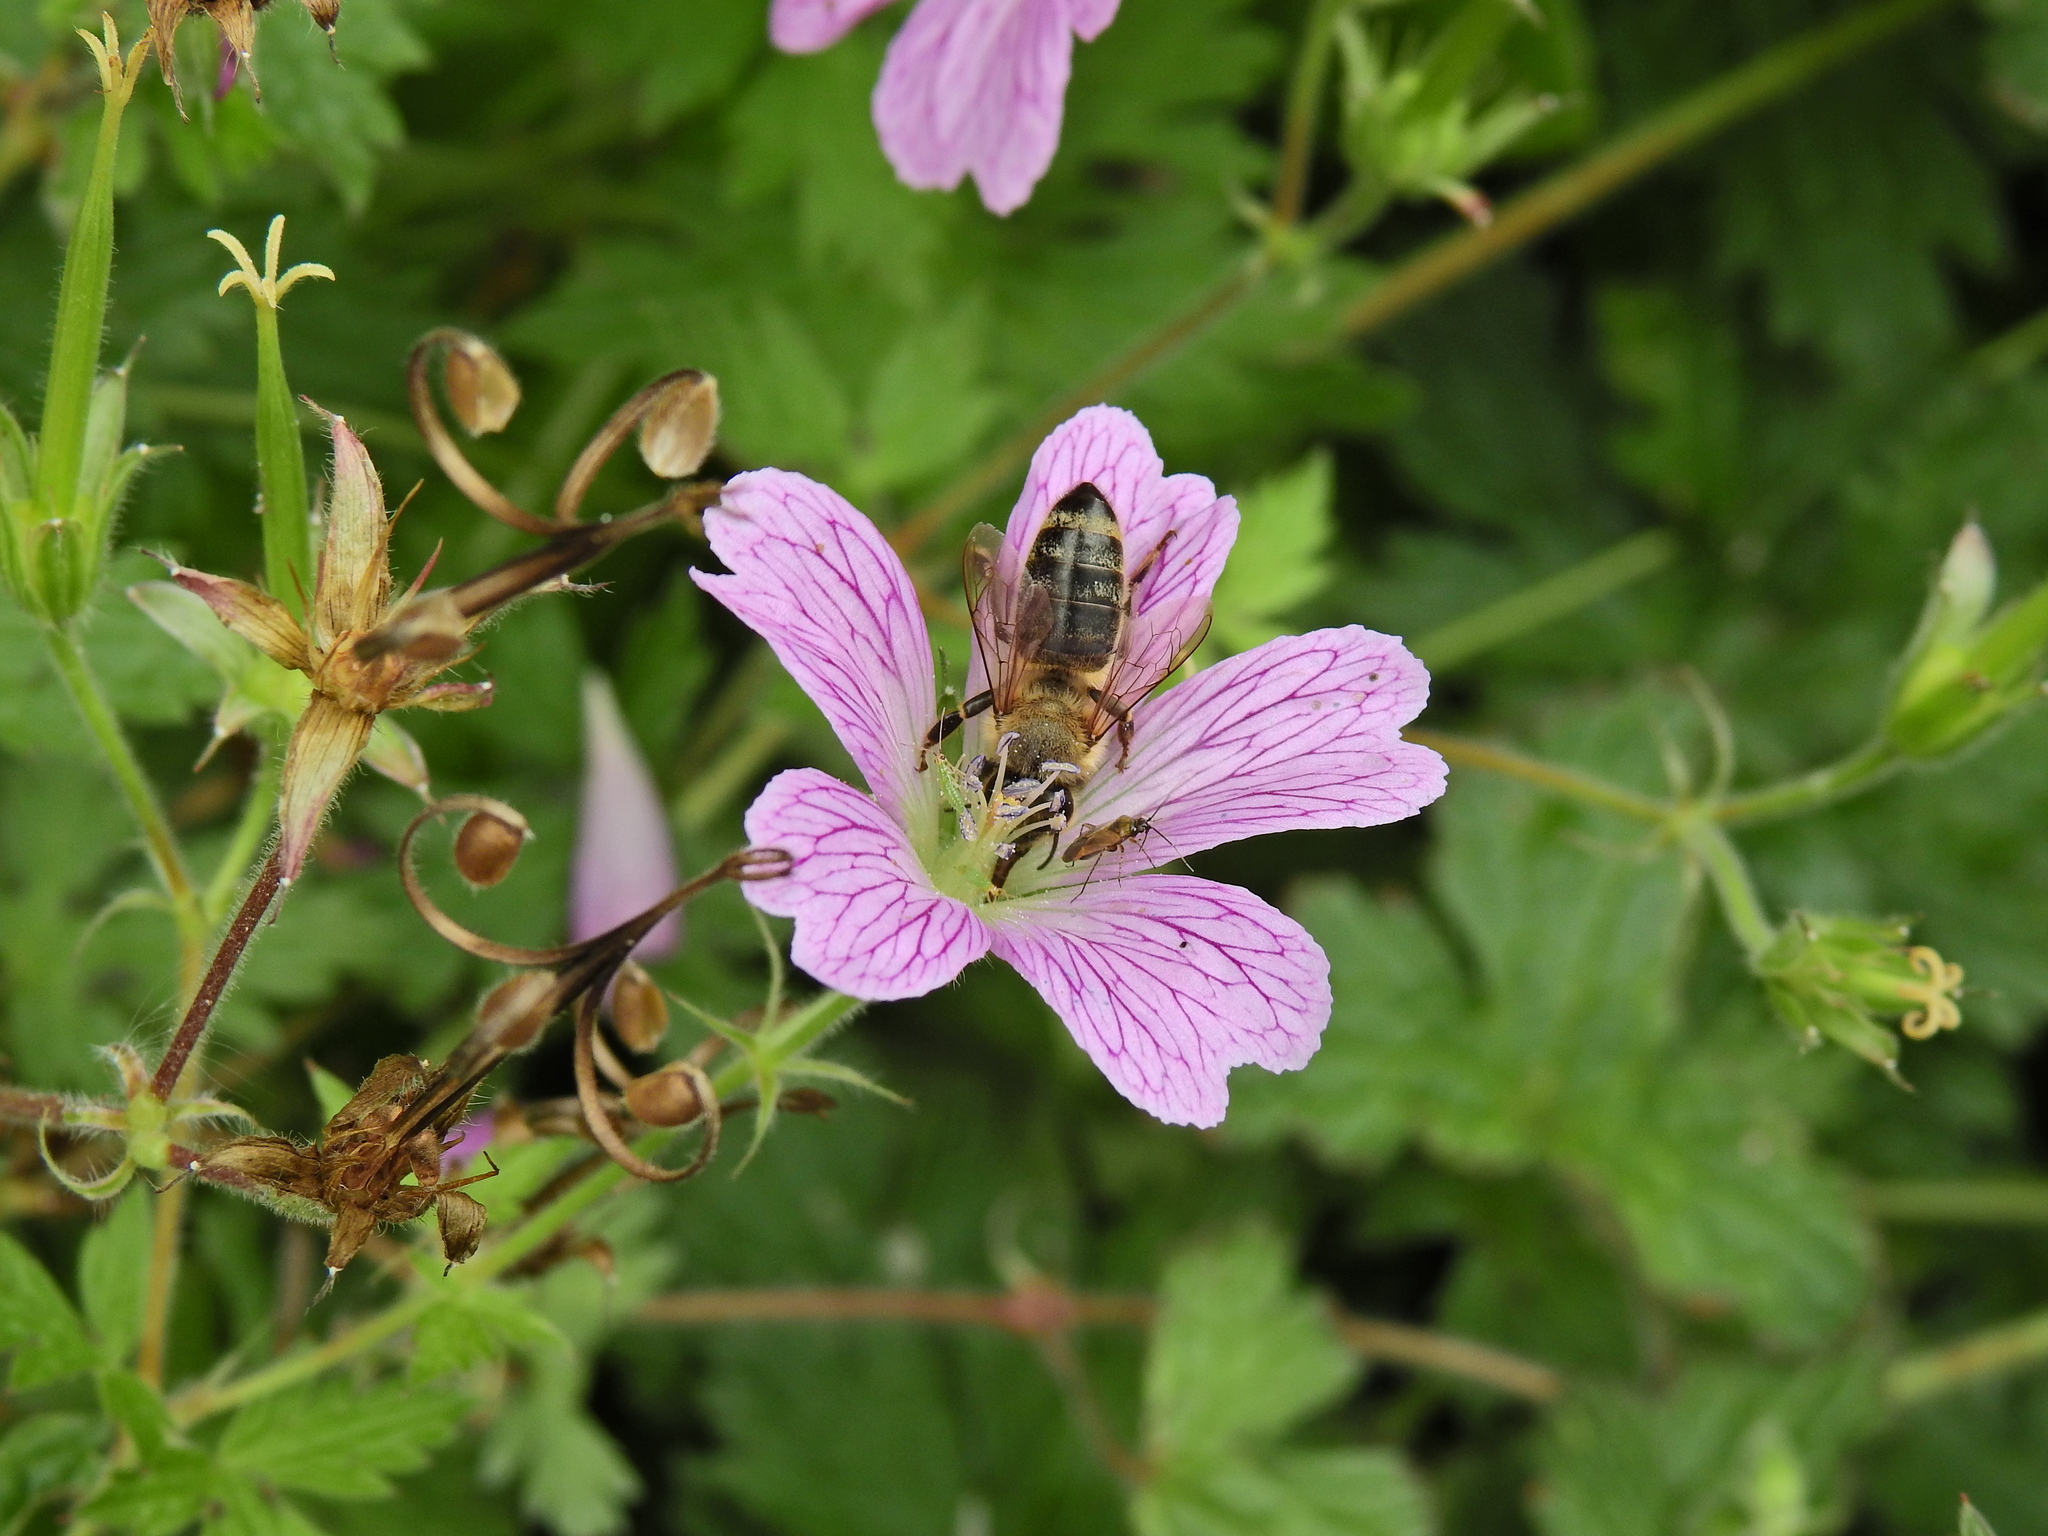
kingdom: Animalia
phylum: Arthropoda
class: Insecta
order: Hymenoptera
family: Apidae
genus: Apis
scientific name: Apis mellifera
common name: Honey bee
